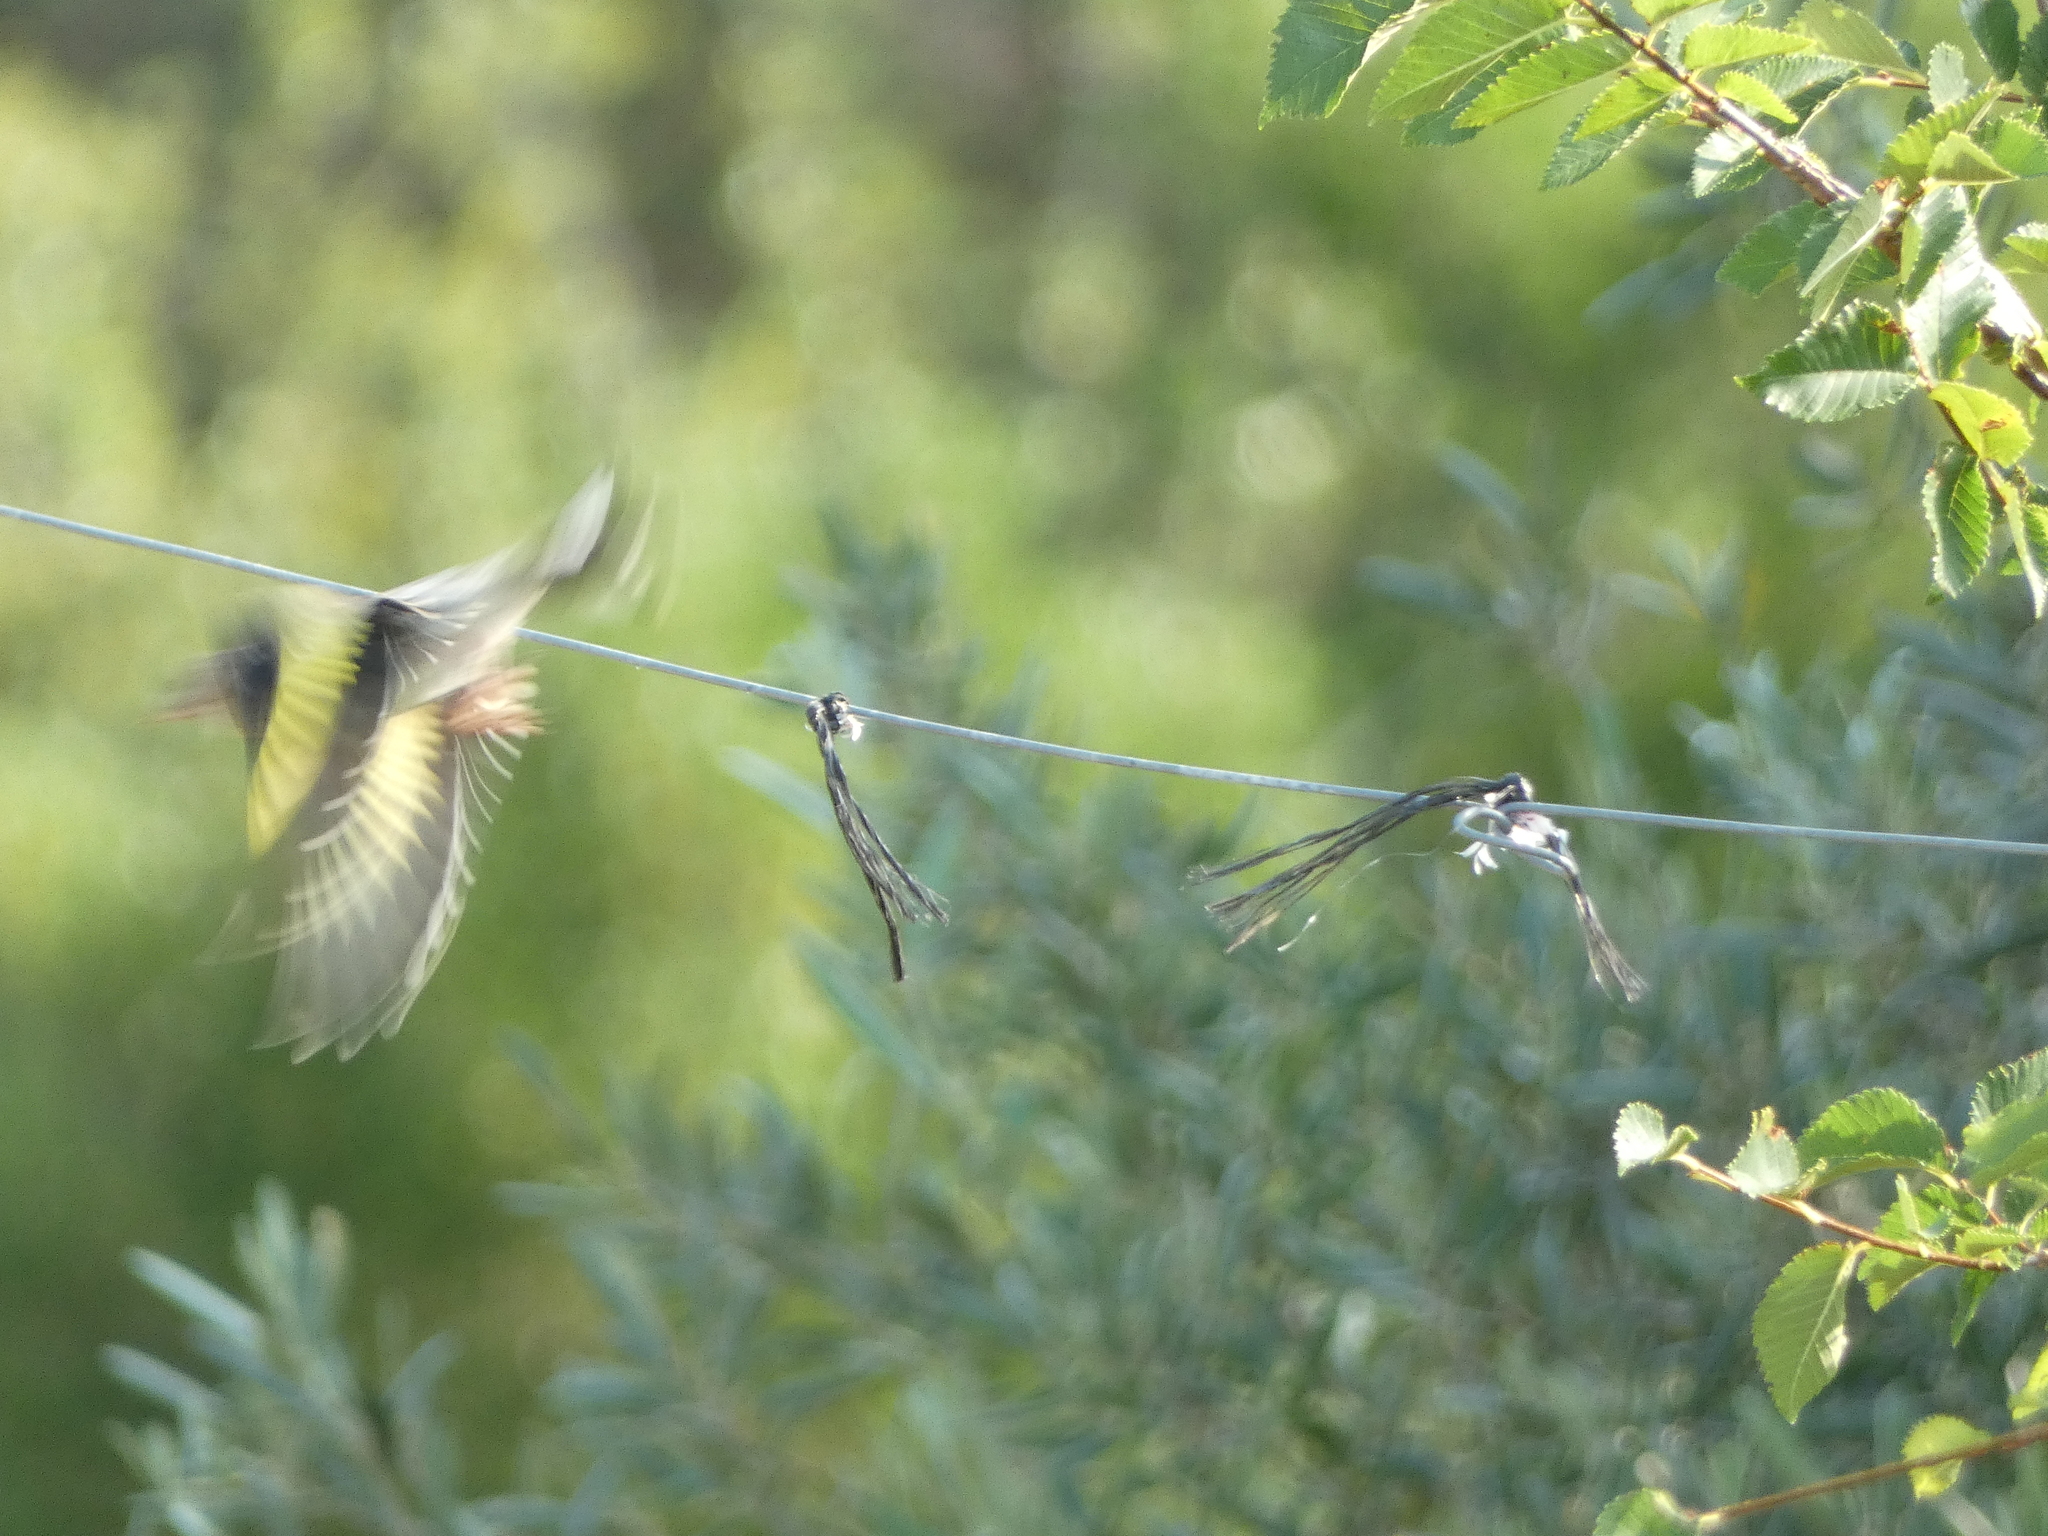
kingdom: Animalia
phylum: Chordata
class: Aves
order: Passeriformes
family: Fringillidae
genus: Carduelis
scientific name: Carduelis carduelis
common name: European goldfinch
